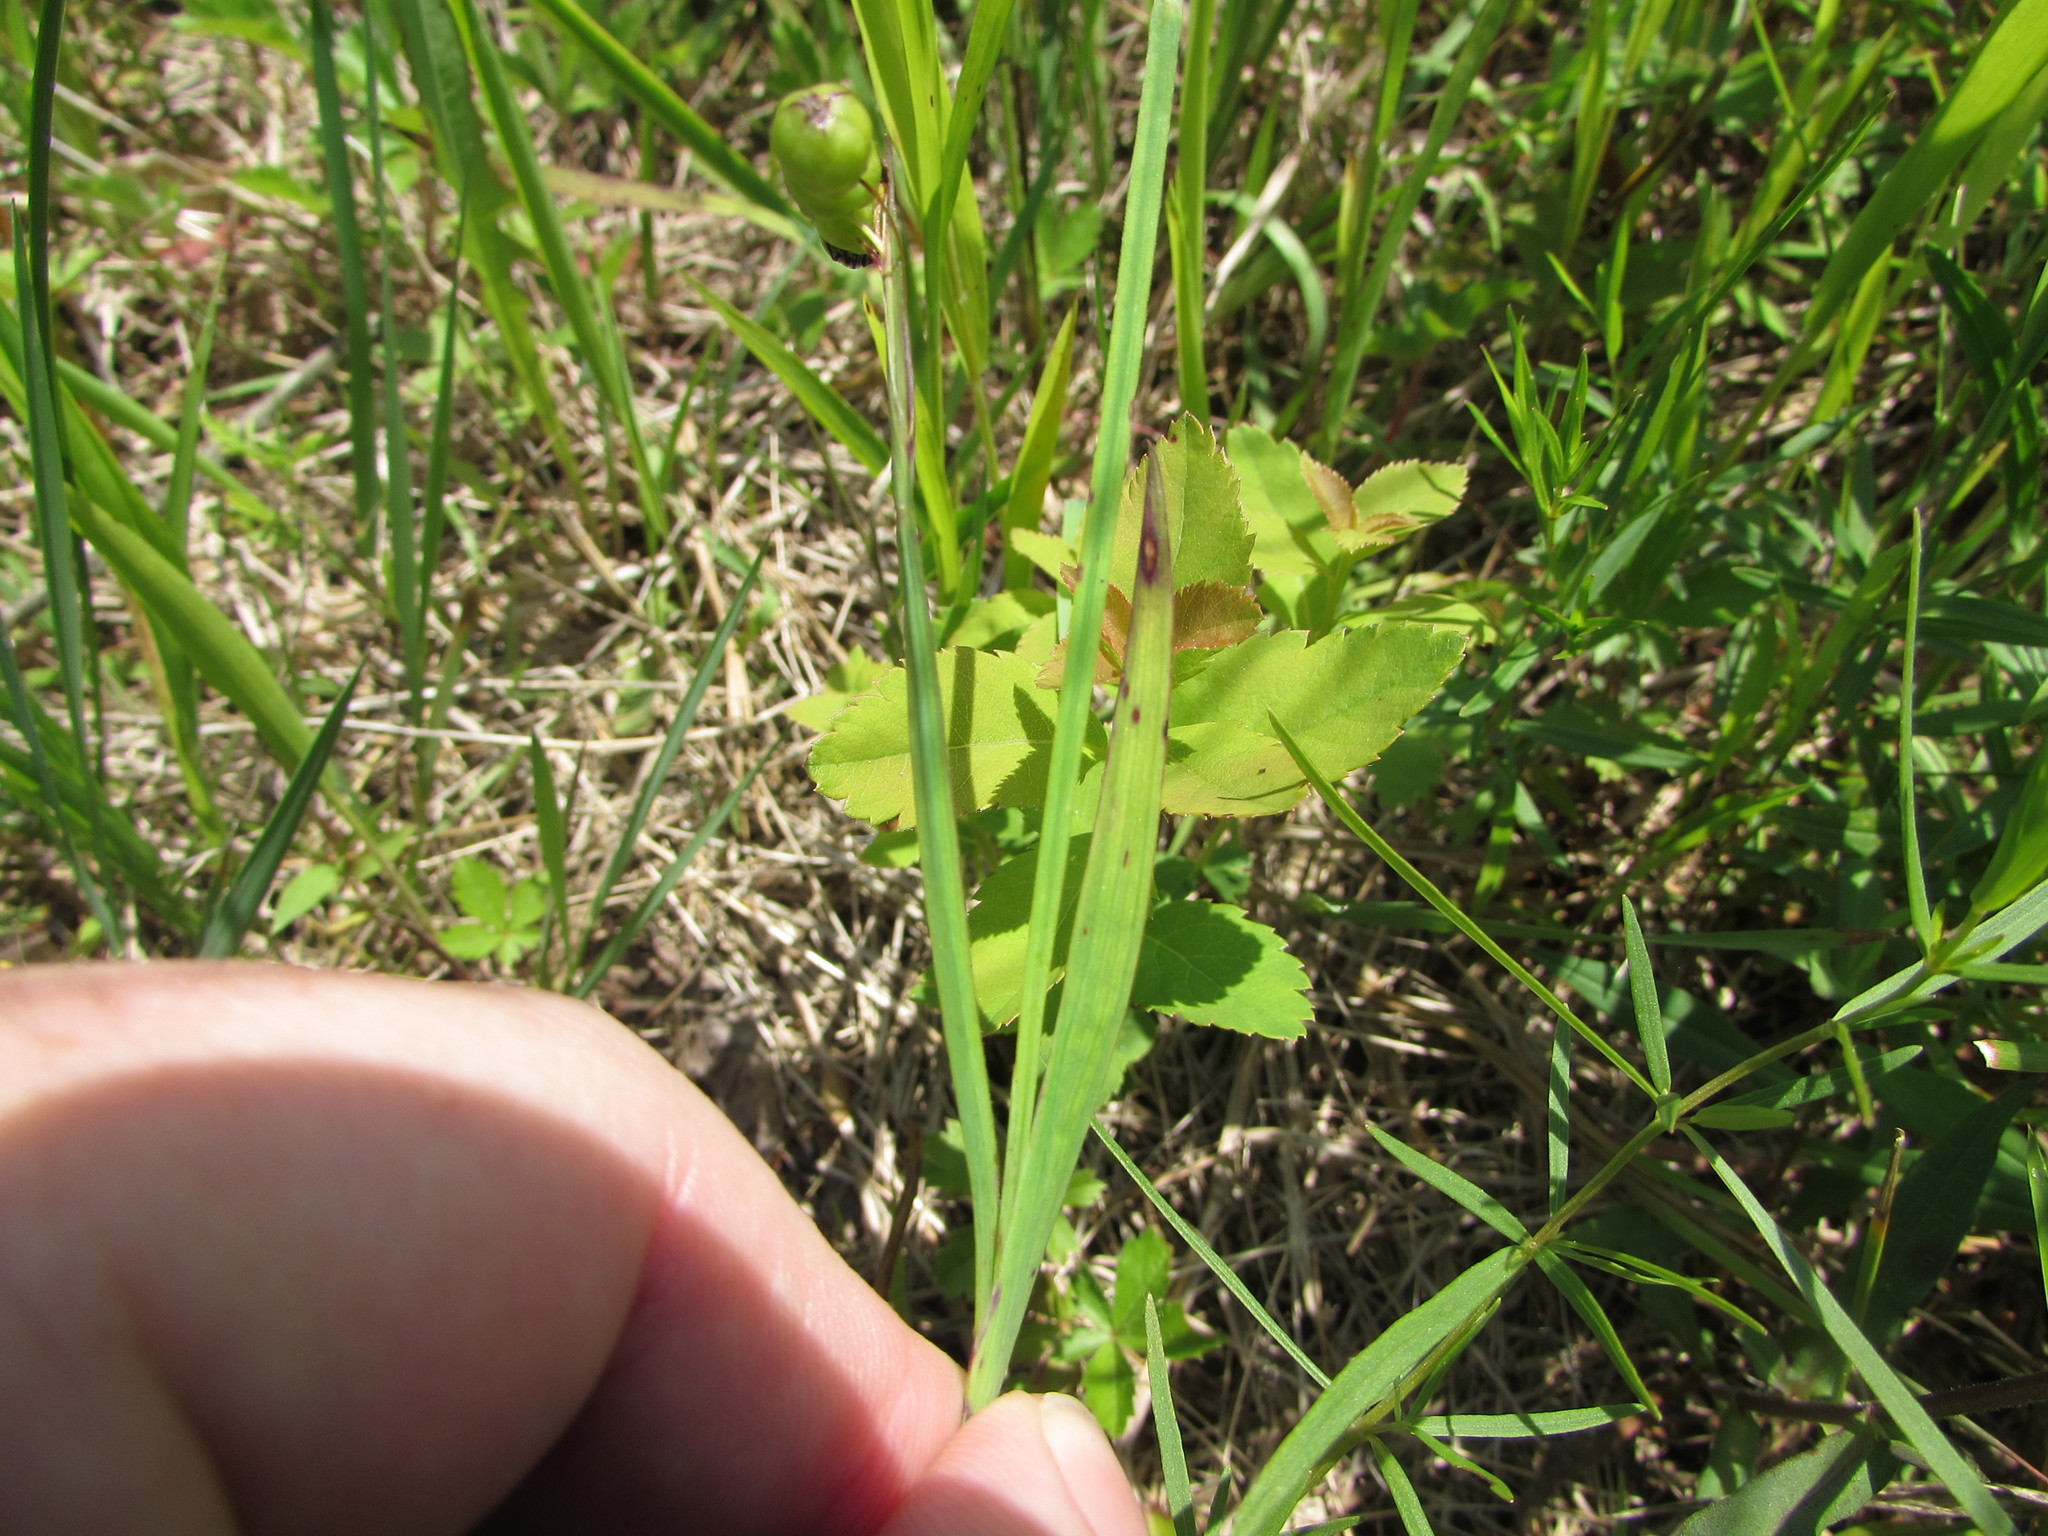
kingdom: Plantae
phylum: Tracheophyta
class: Liliopsida
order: Asparagales
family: Iridaceae
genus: Sisyrinchium
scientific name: Sisyrinchium angustifolium
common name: Narrow-leaf blue-eyed-grass
